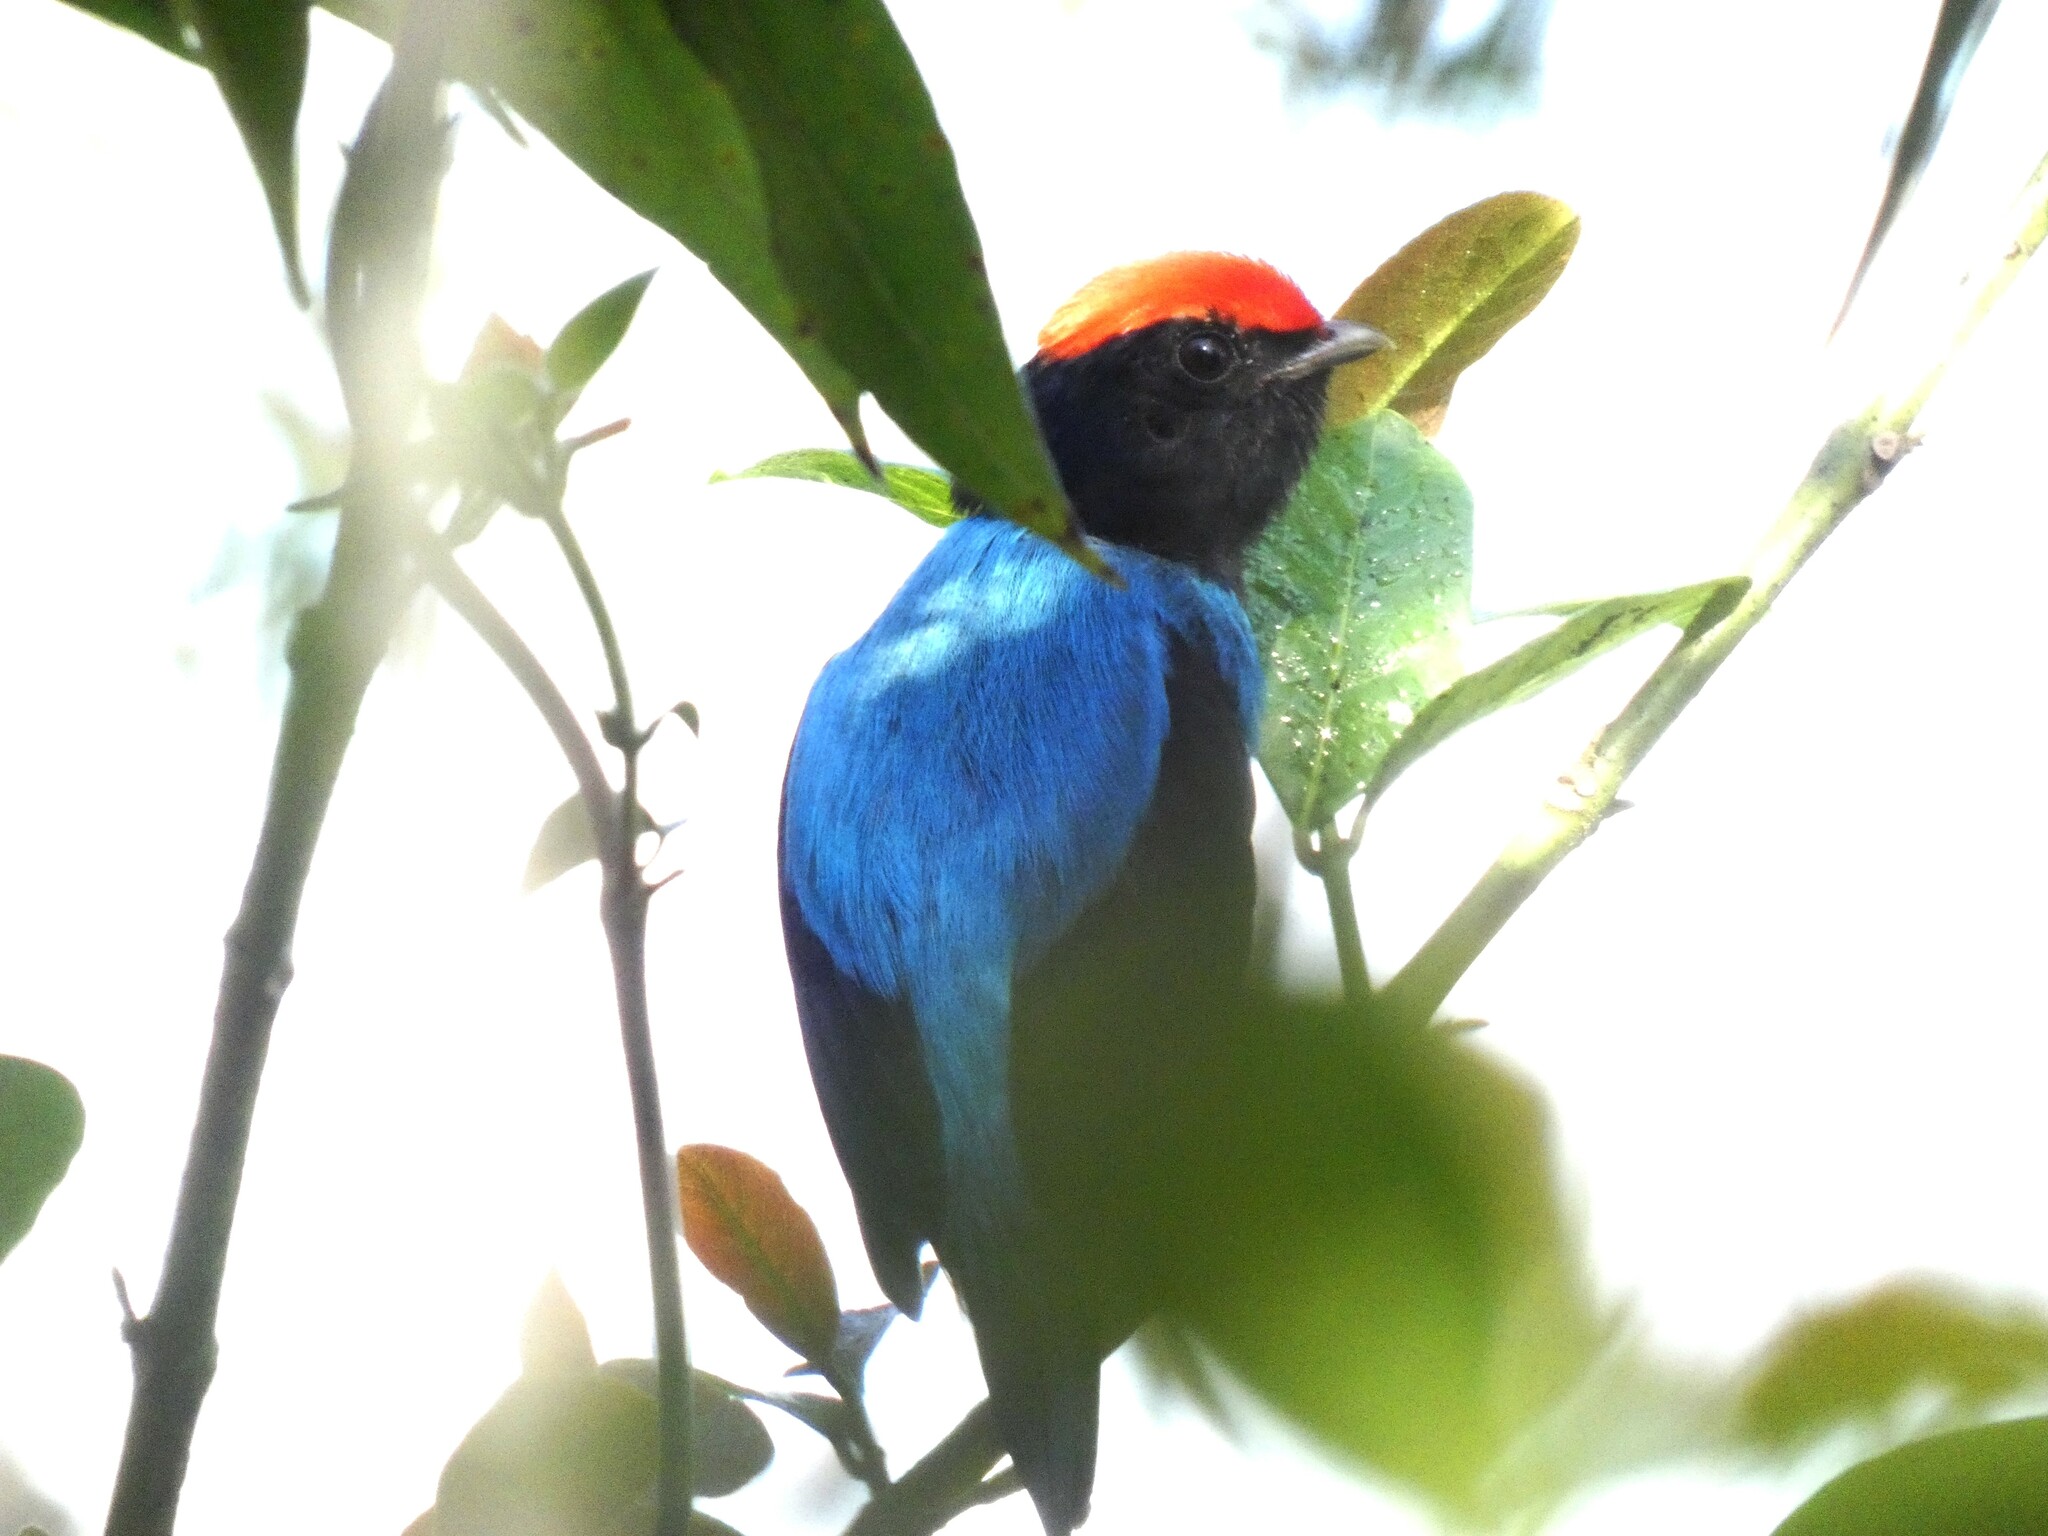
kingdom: Animalia
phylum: Chordata
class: Aves
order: Passeriformes
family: Pipridae
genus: Chiroxiphia
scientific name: Chiroxiphia caudata
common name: Blue manakin
